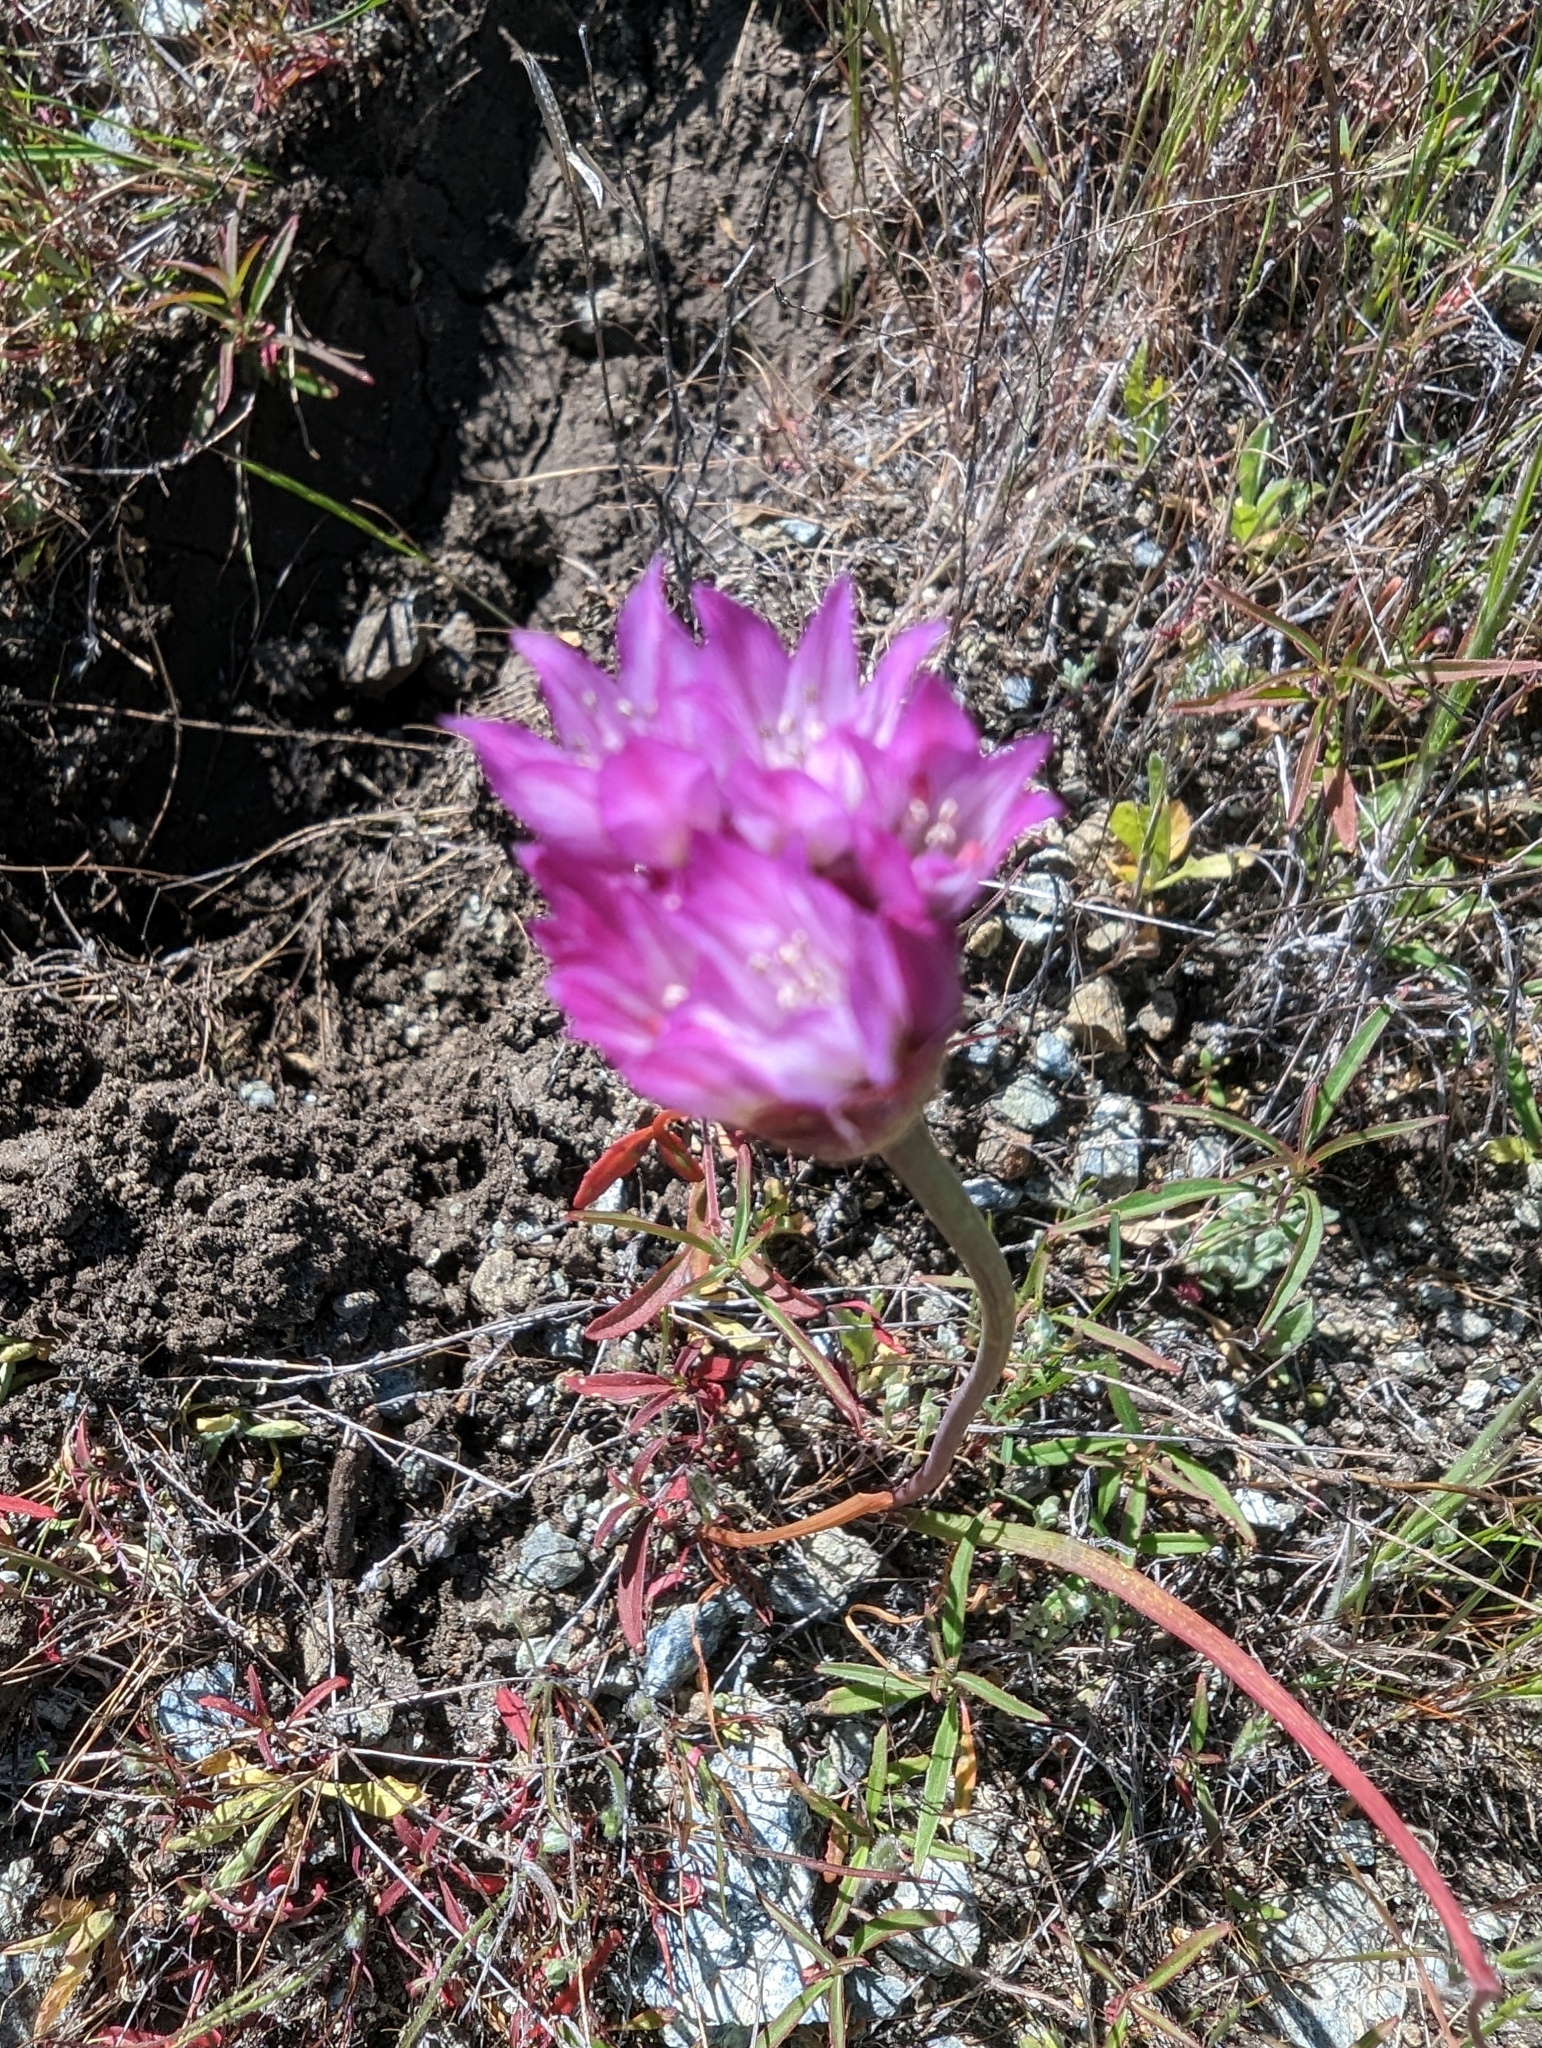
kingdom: Plantae
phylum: Tracheophyta
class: Liliopsida
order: Asparagales
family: Amaryllidaceae
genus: Allium
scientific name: Allium serra
